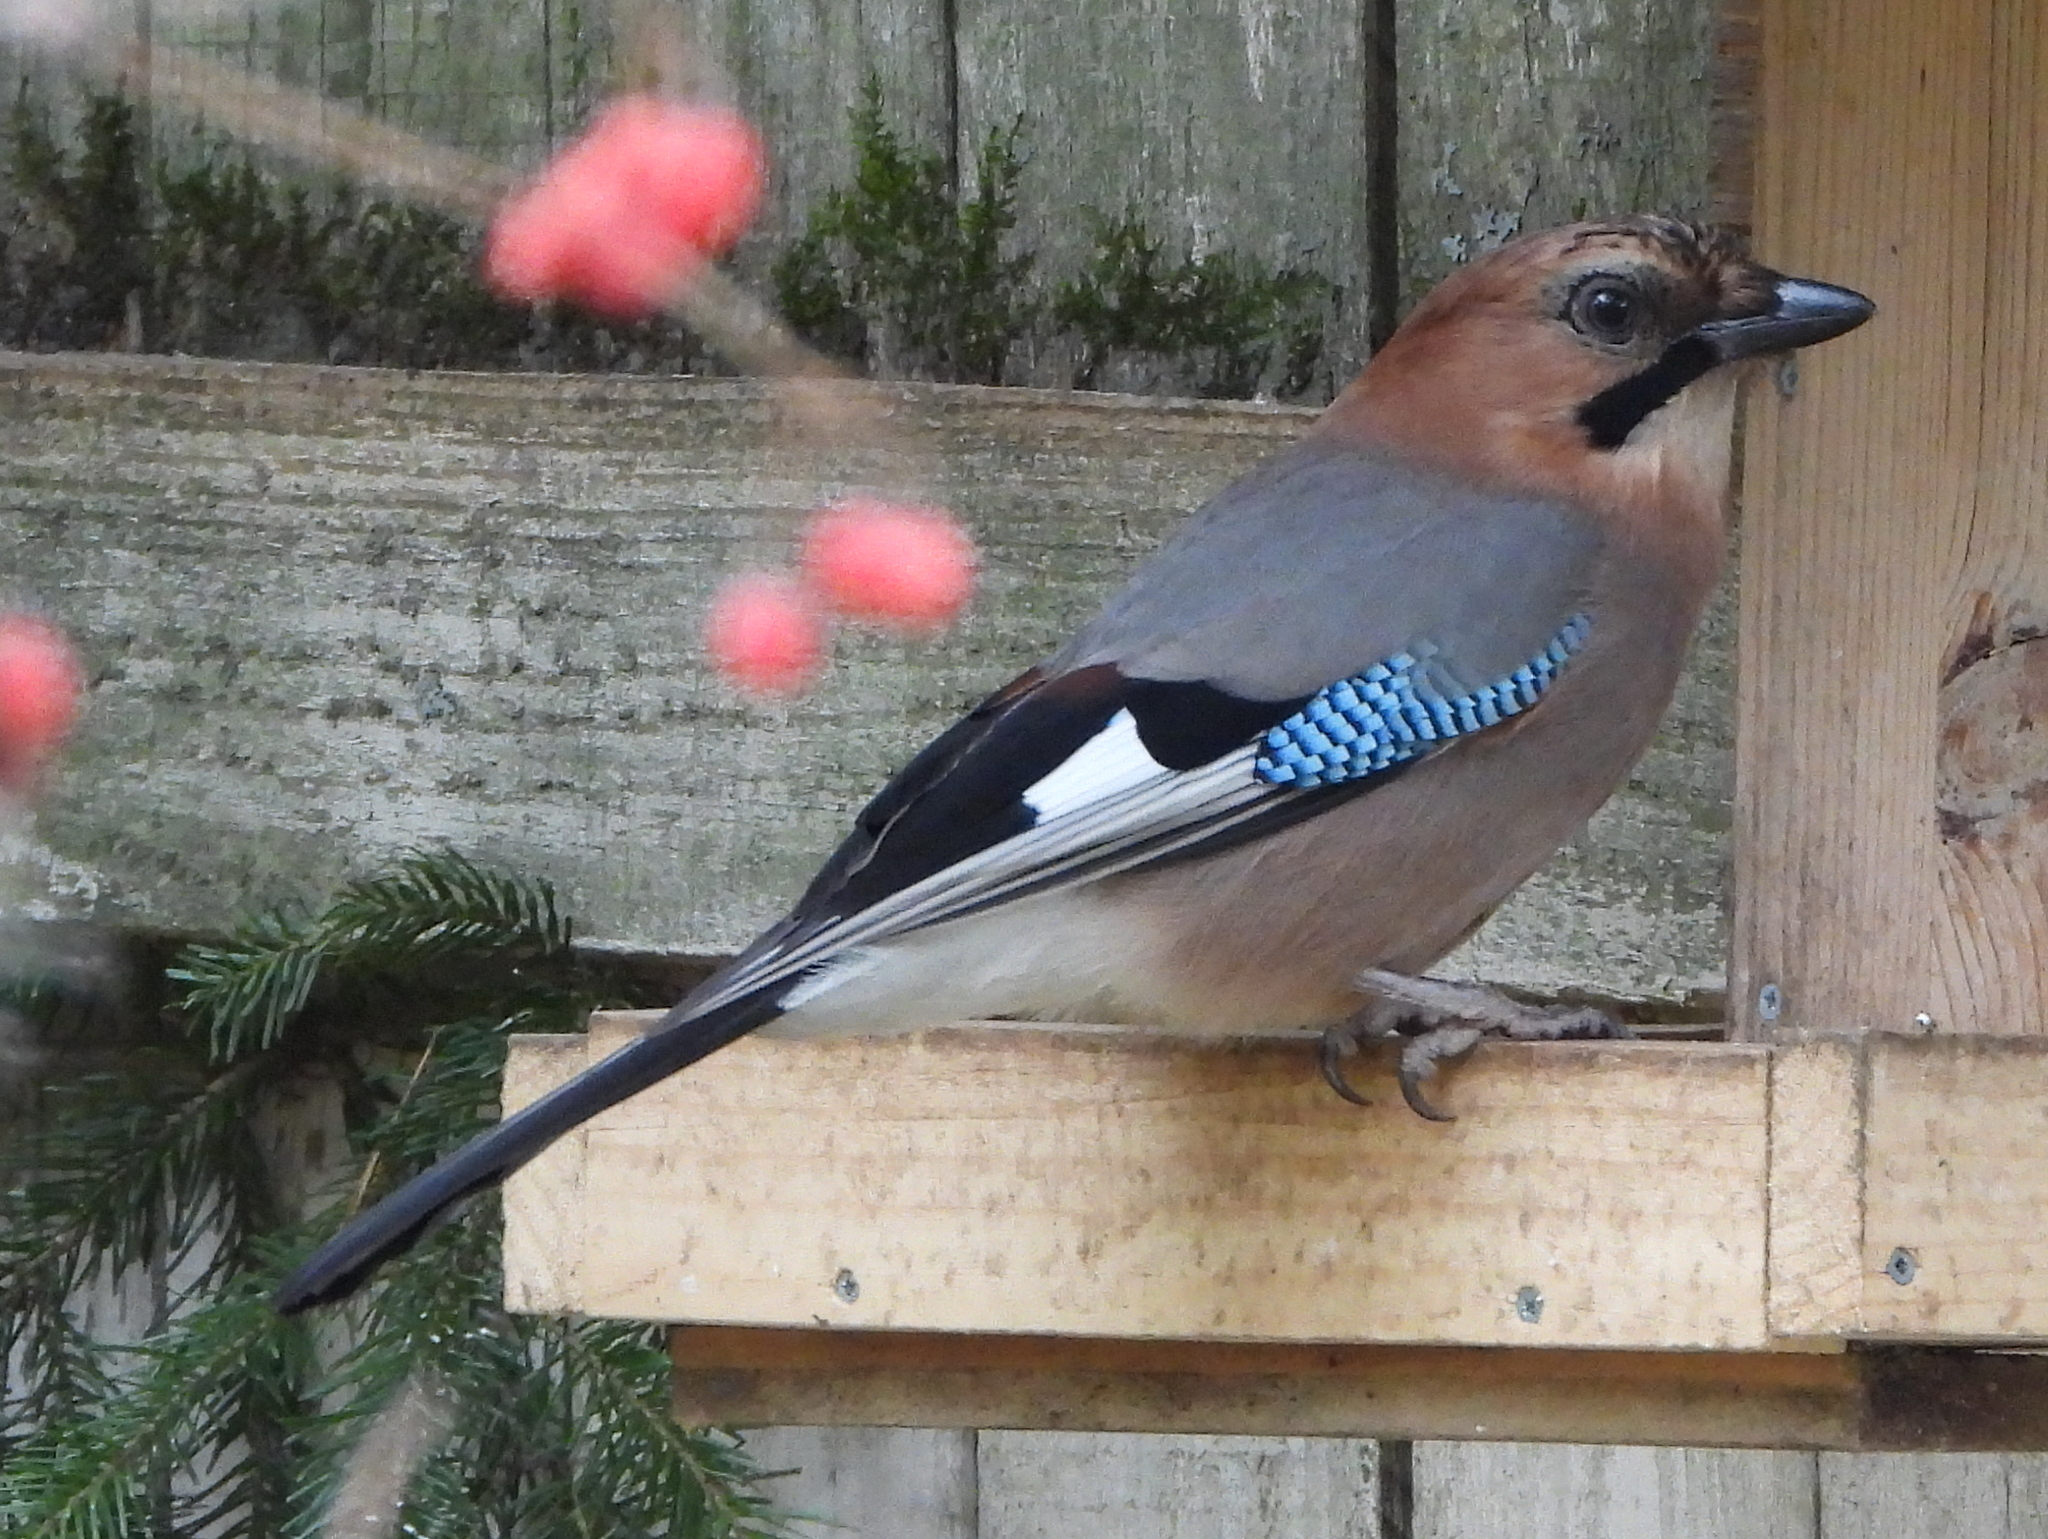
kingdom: Animalia
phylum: Chordata
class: Aves
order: Passeriformes
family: Corvidae
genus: Garrulus
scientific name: Garrulus glandarius
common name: Eurasian jay
